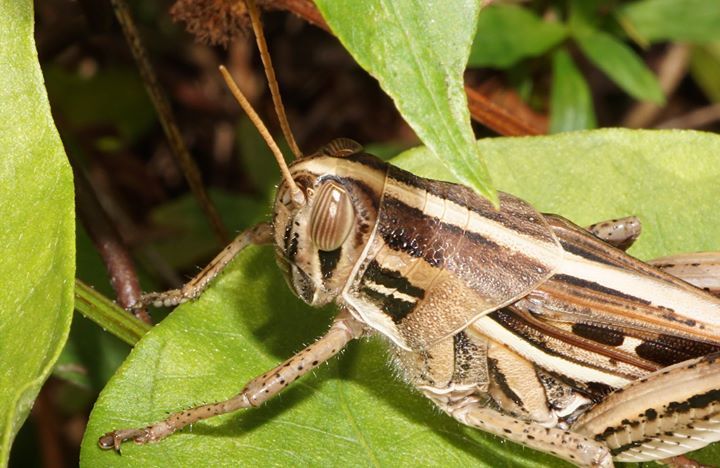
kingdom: Animalia
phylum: Arthropoda
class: Insecta
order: Orthoptera
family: Acrididae
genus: Schistocerca
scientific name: Schistocerca americana
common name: American bird locust
